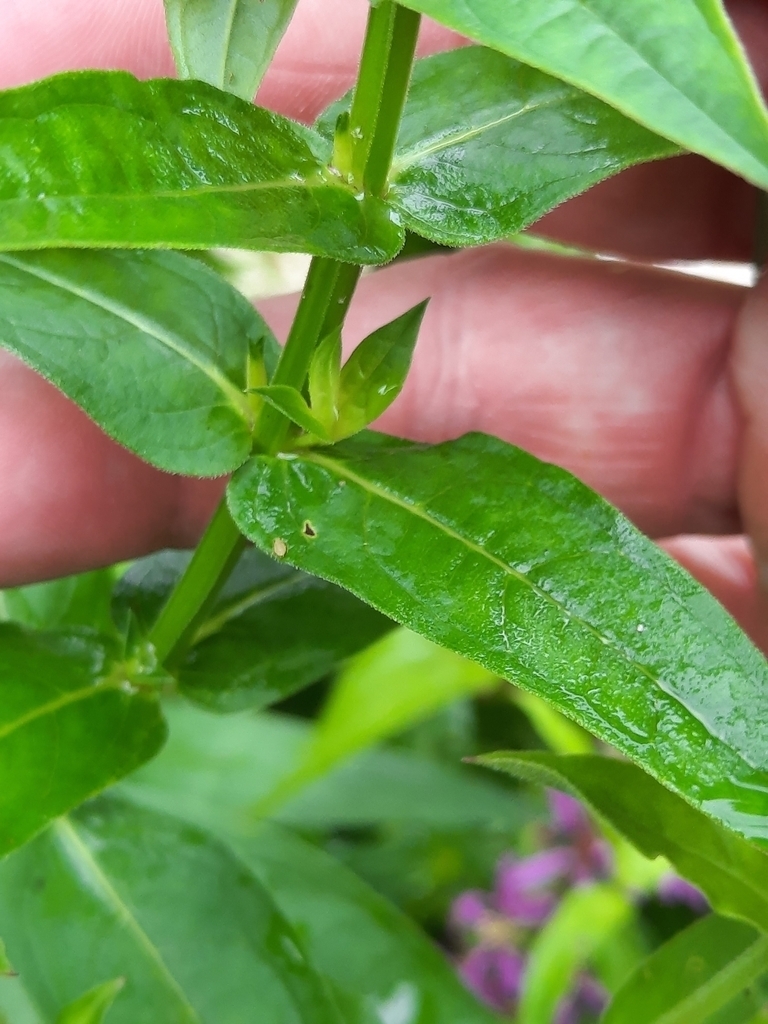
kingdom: Plantae
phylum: Tracheophyta
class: Magnoliopsida
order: Myrtales
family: Lythraceae
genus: Lythrum
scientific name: Lythrum salicaria
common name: Purple loosestrife
